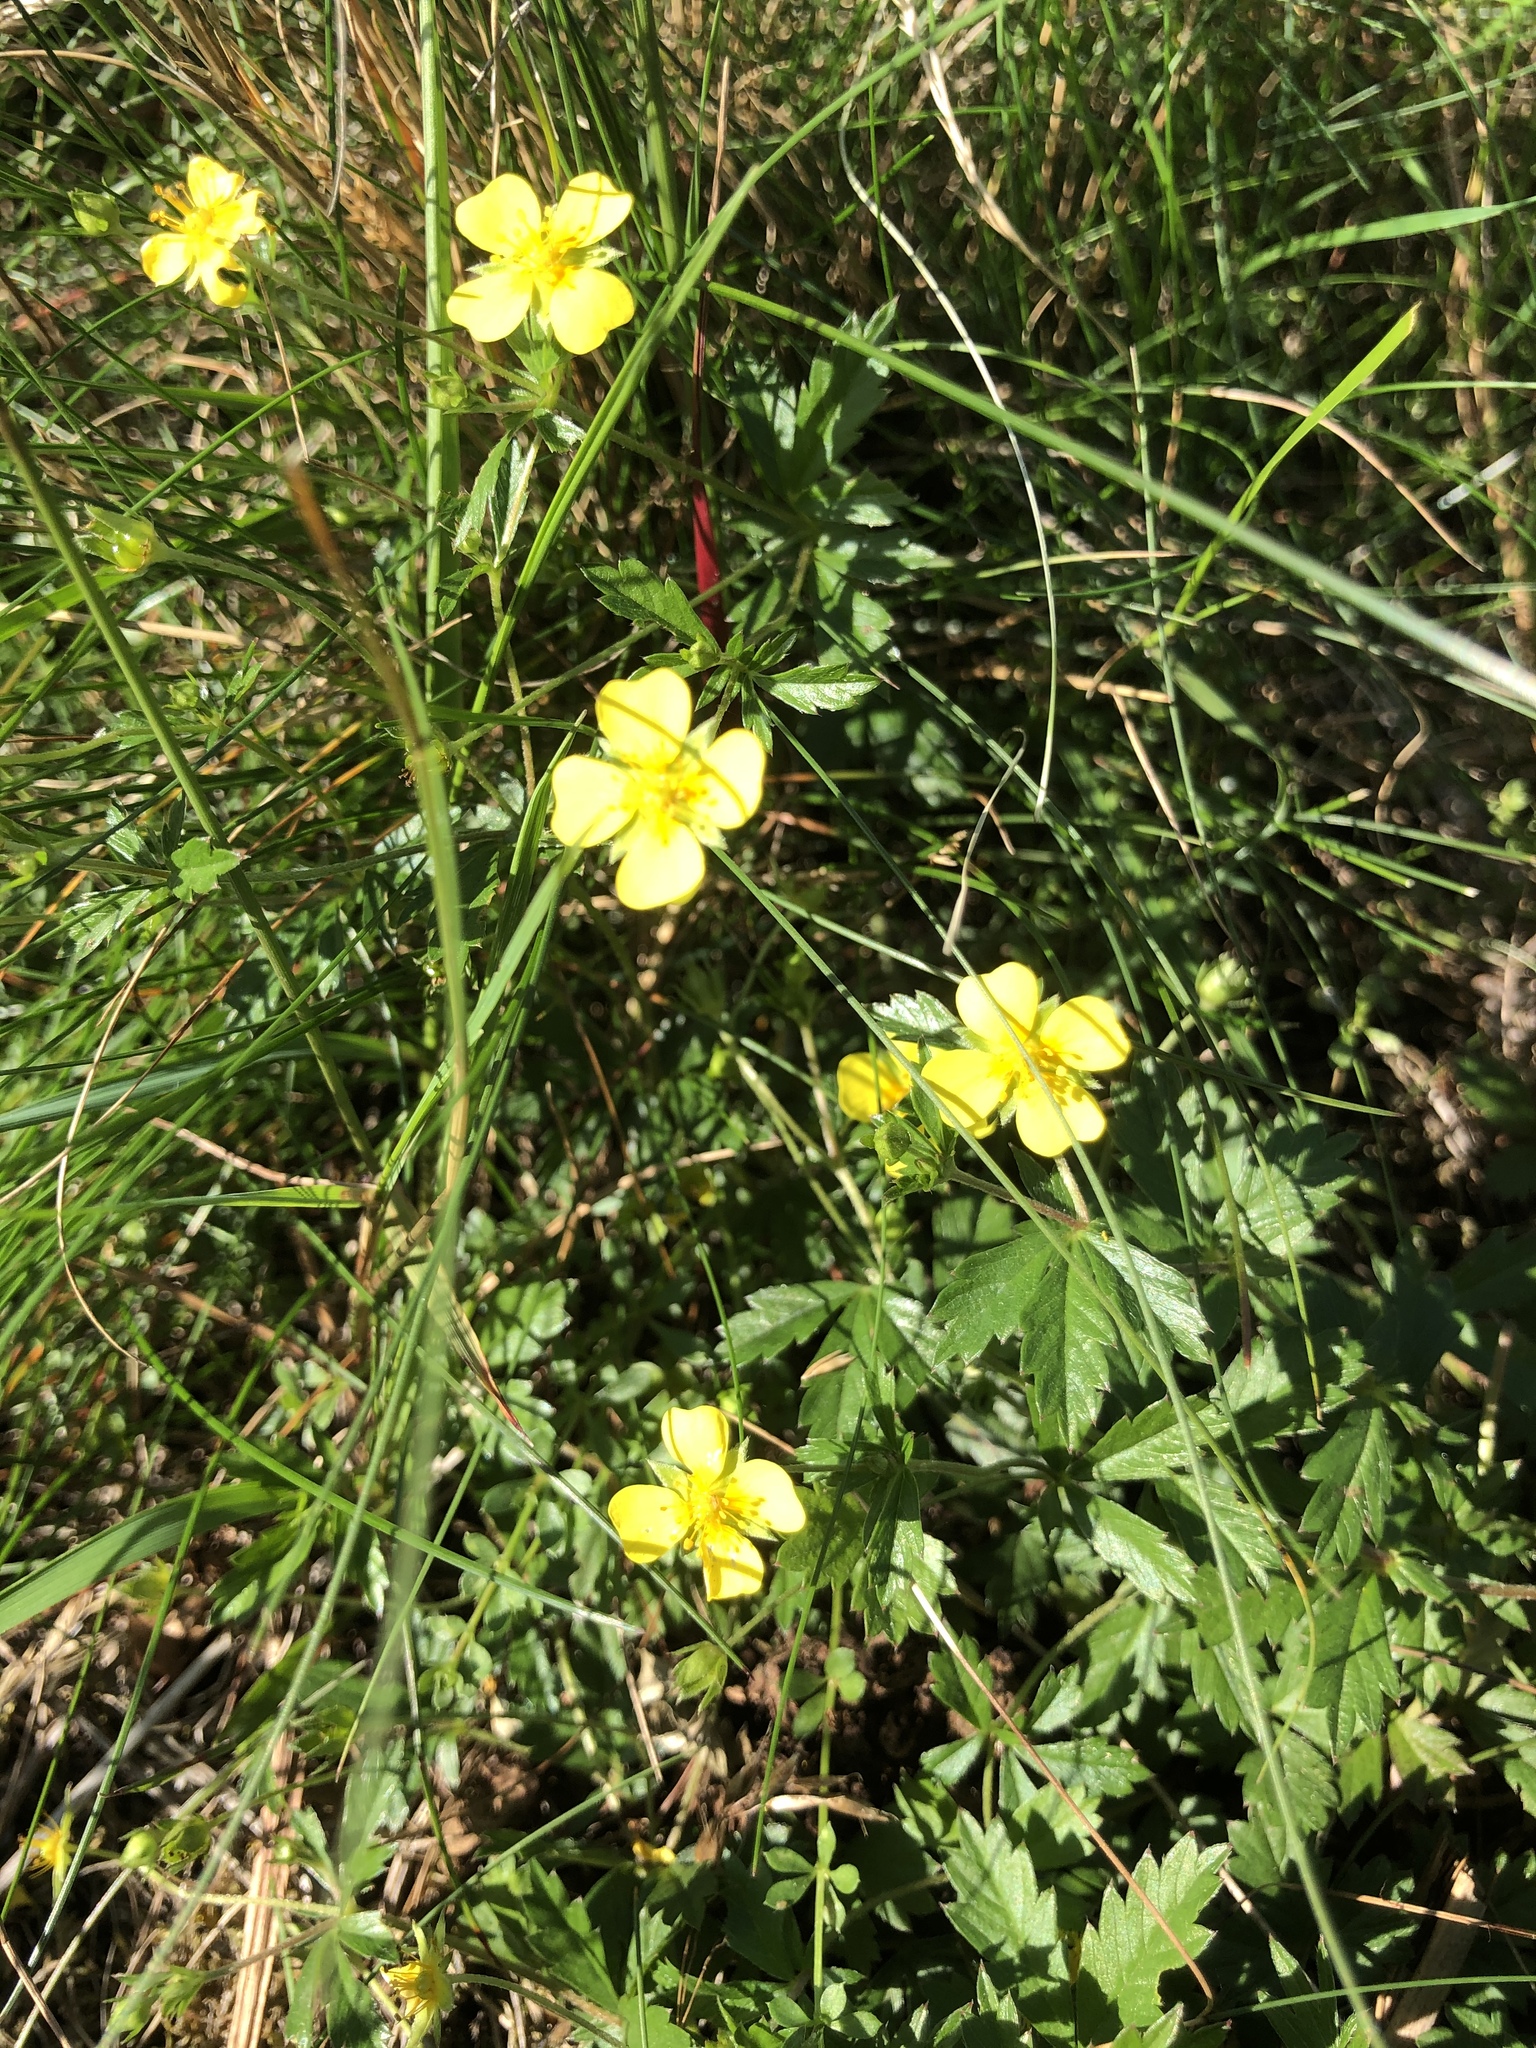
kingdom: Plantae
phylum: Tracheophyta
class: Magnoliopsida
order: Rosales
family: Rosaceae
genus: Potentilla
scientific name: Potentilla erecta
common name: Tormentil
